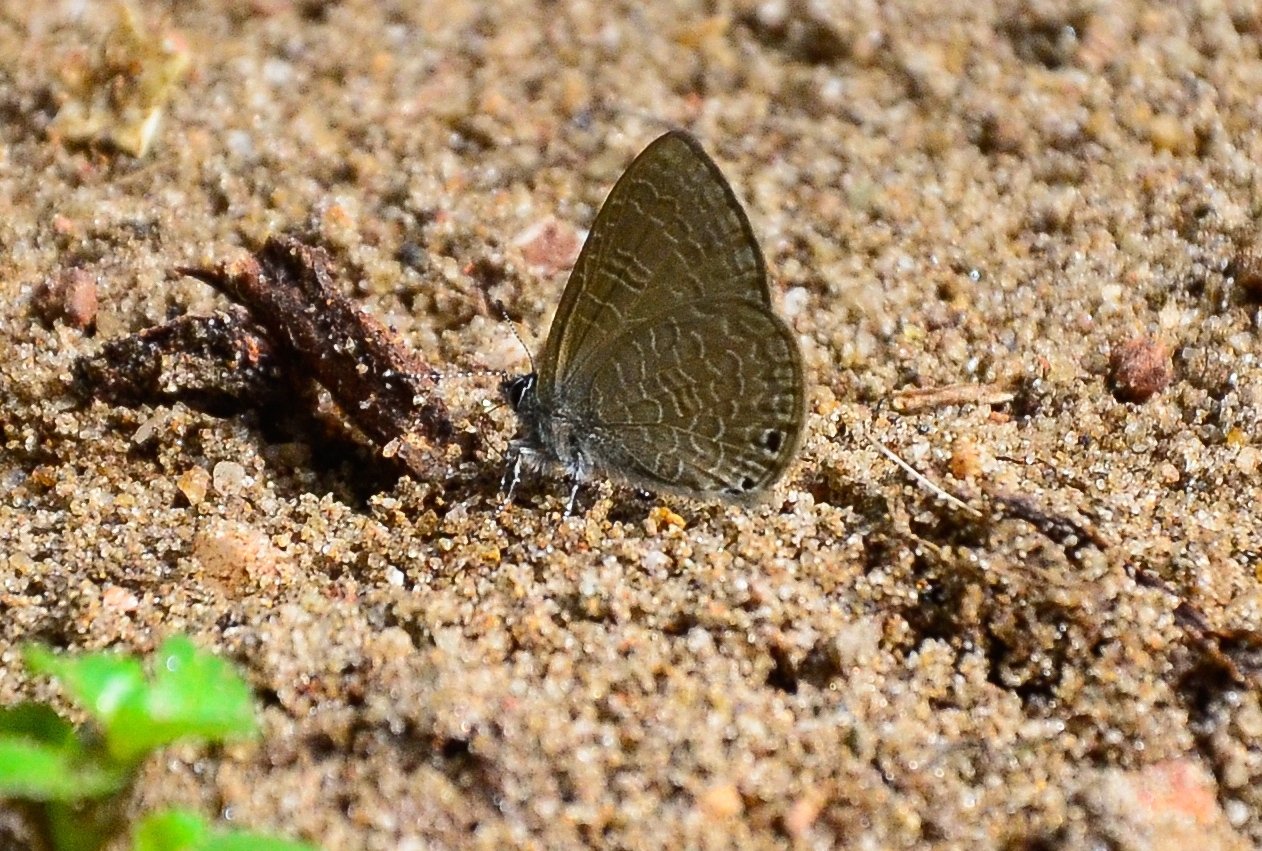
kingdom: Animalia
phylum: Arthropoda
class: Insecta
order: Lepidoptera
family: Lycaenidae
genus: Petrelaea
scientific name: Petrelaea dana
